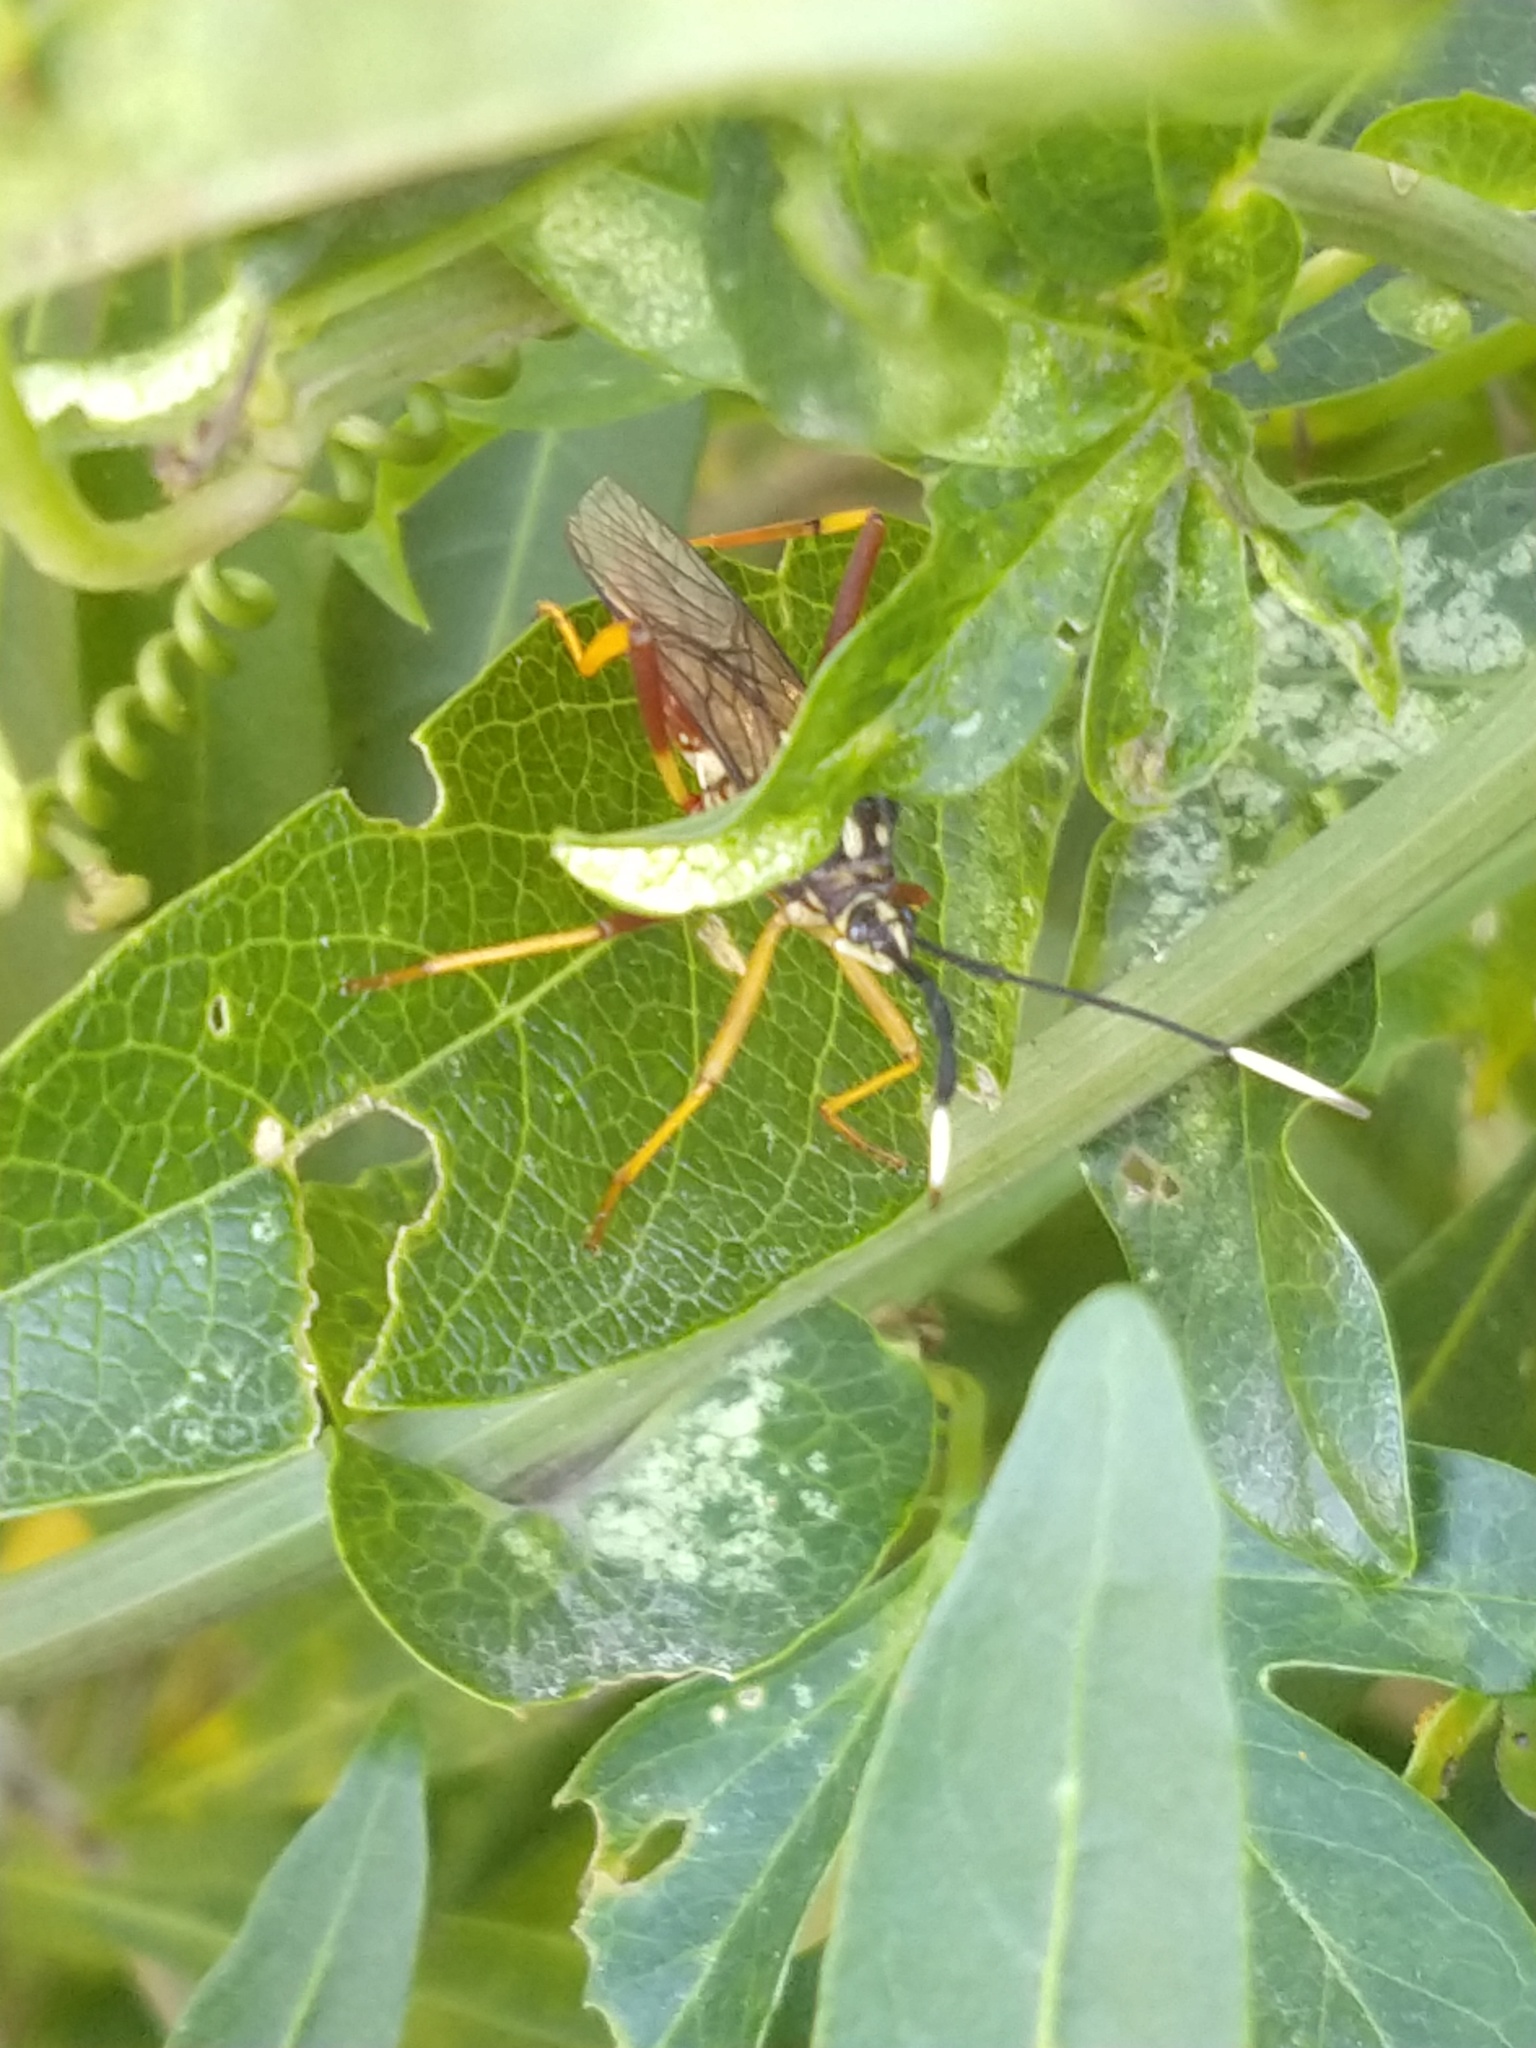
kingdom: Animalia
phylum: Arthropoda
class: Insecta
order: Hemiptera
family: Coreidae
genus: Holhymenia
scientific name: Holhymenia histrio
